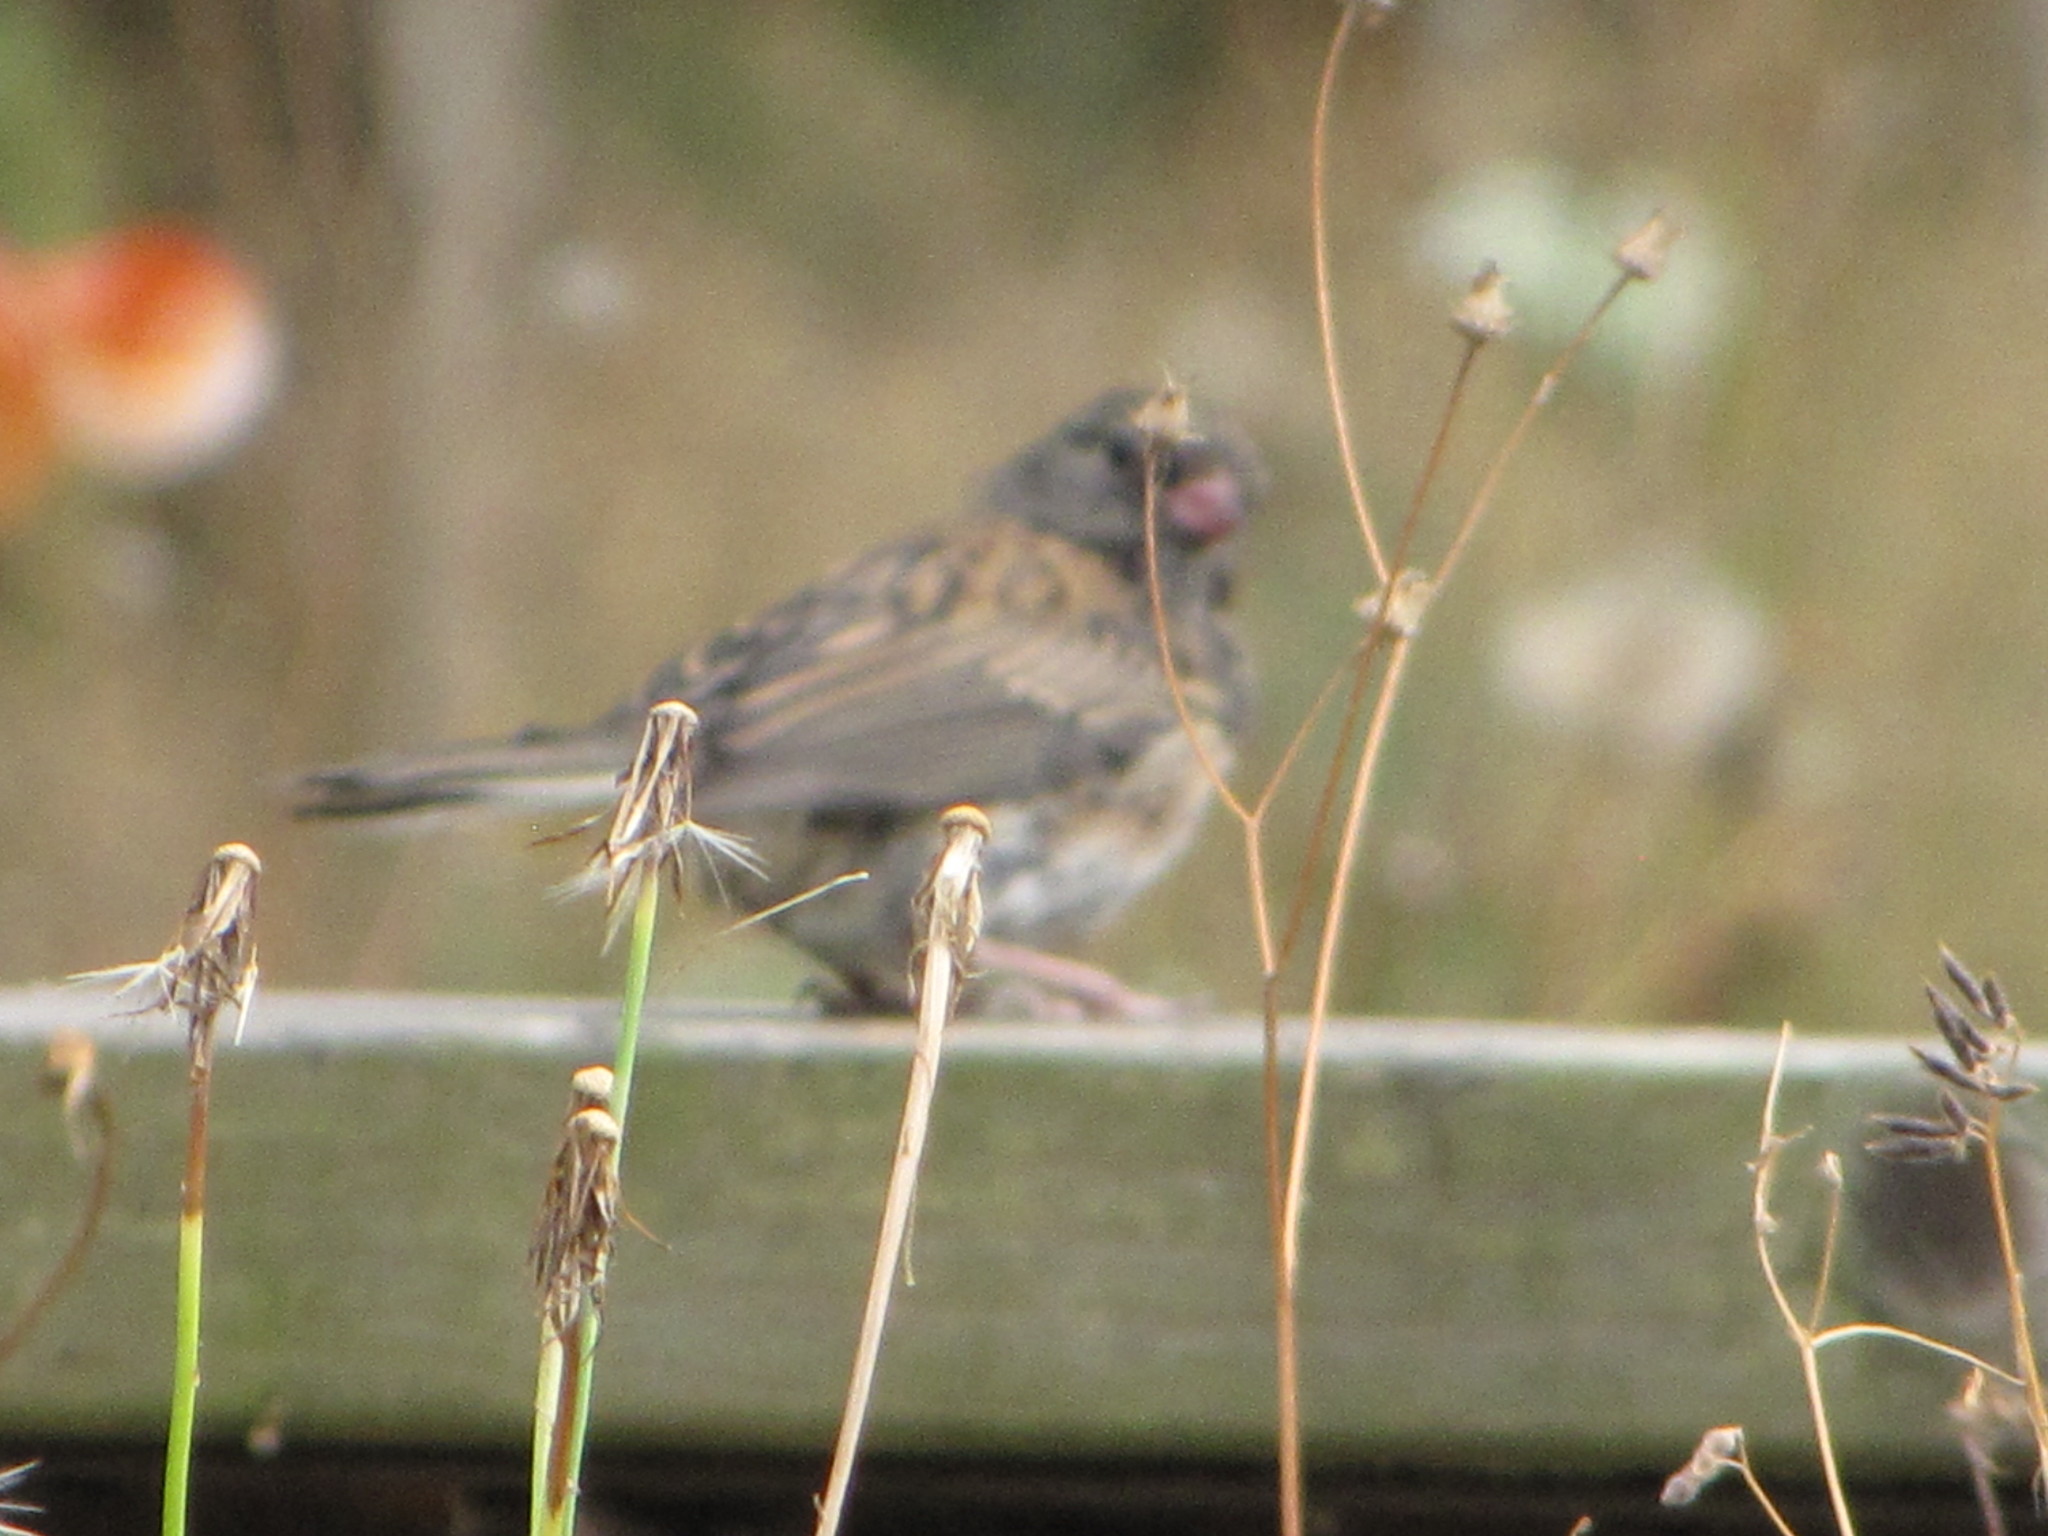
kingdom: Animalia
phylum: Chordata
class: Aves
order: Passeriformes
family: Passerellidae
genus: Junco
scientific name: Junco hyemalis
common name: Dark-eyed junco
